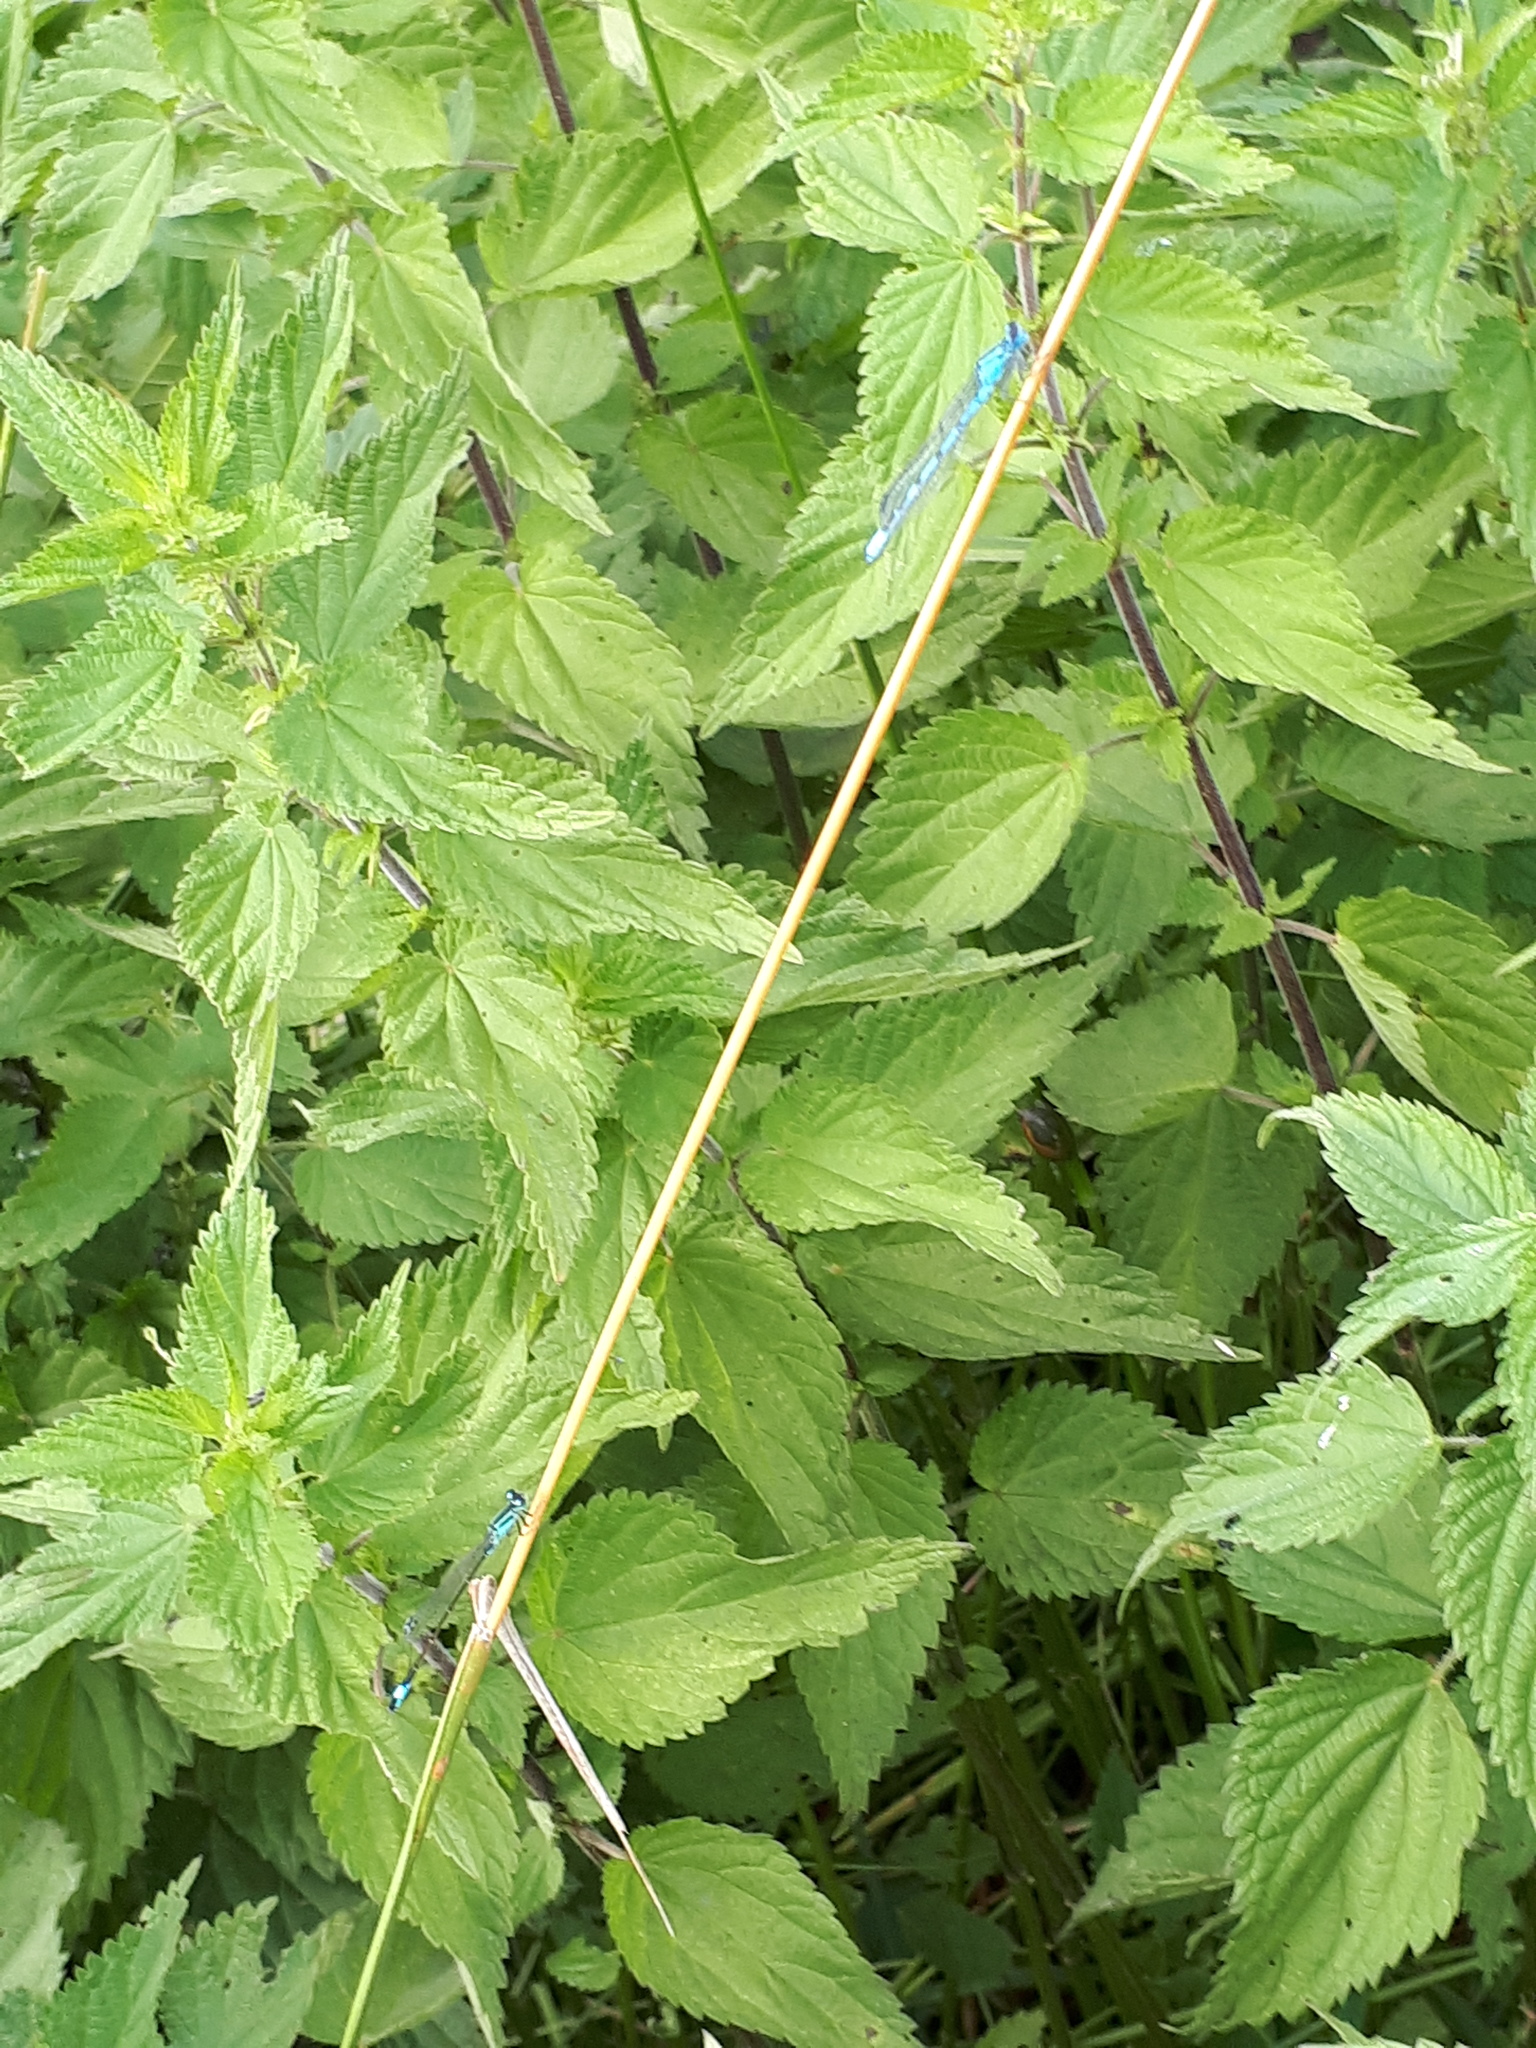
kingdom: Animalia
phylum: Arthropoda
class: Insecta
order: Odonata
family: Coenagrionidae
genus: Ischnura
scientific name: Ischnura elegans
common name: Blue-tailed damselfly
